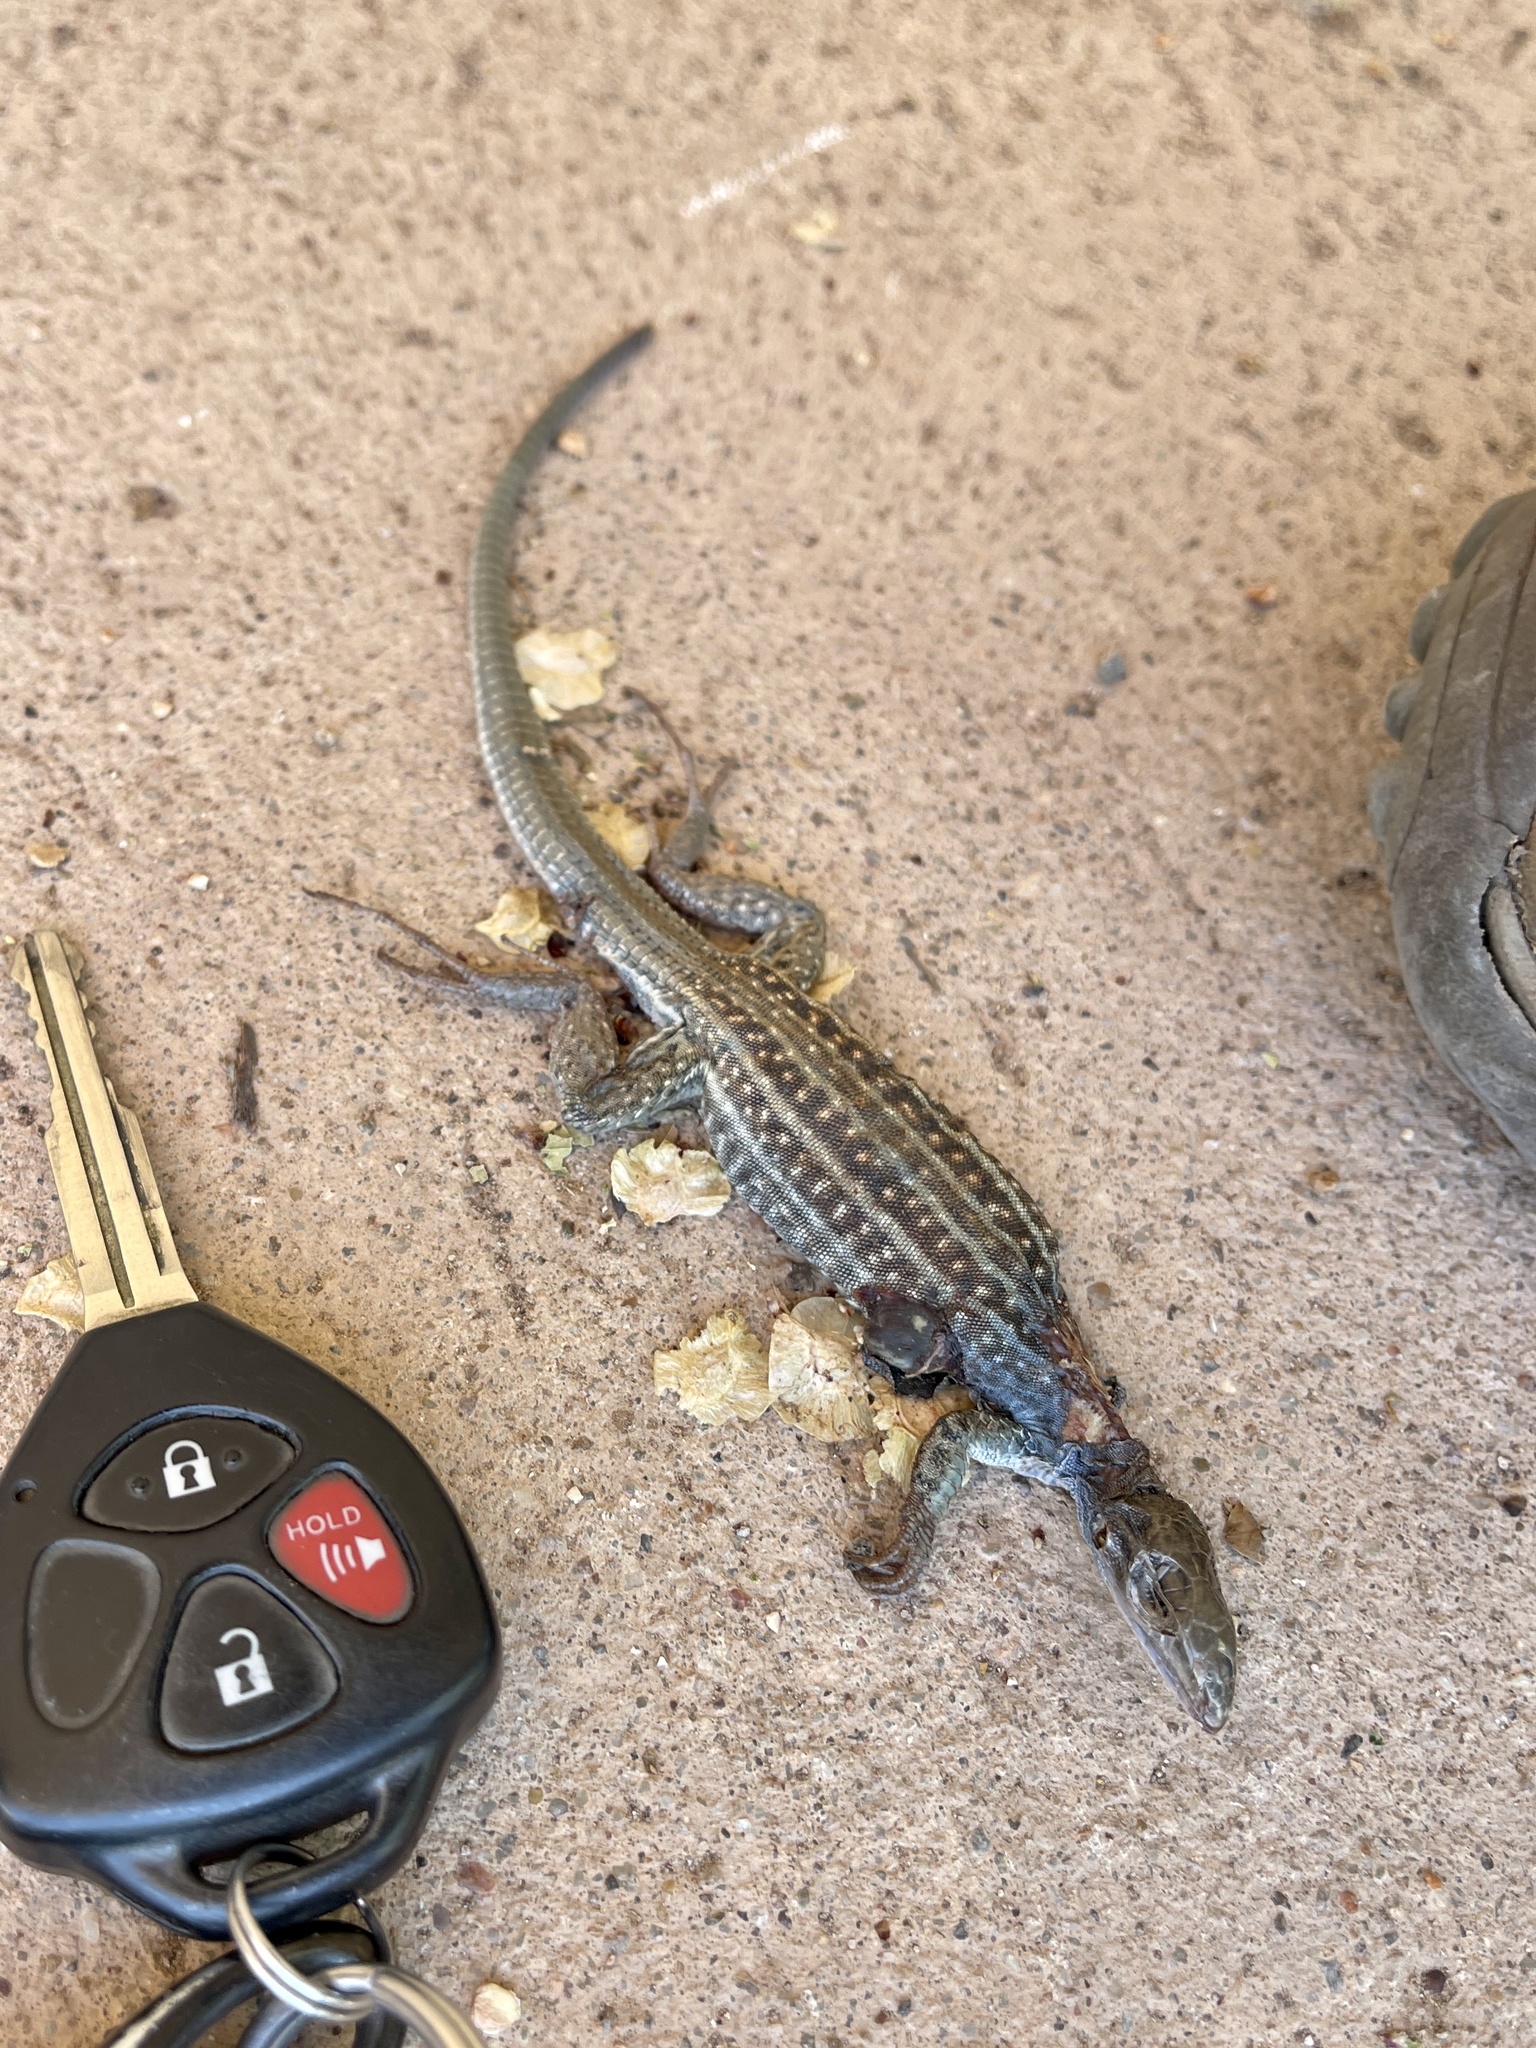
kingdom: Animalia
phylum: Chordata
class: Squamata
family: Teiidae
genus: Aspidoscelis
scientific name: Aspidoscelis exsanguis
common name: Chihuahuan spotted whiptail
